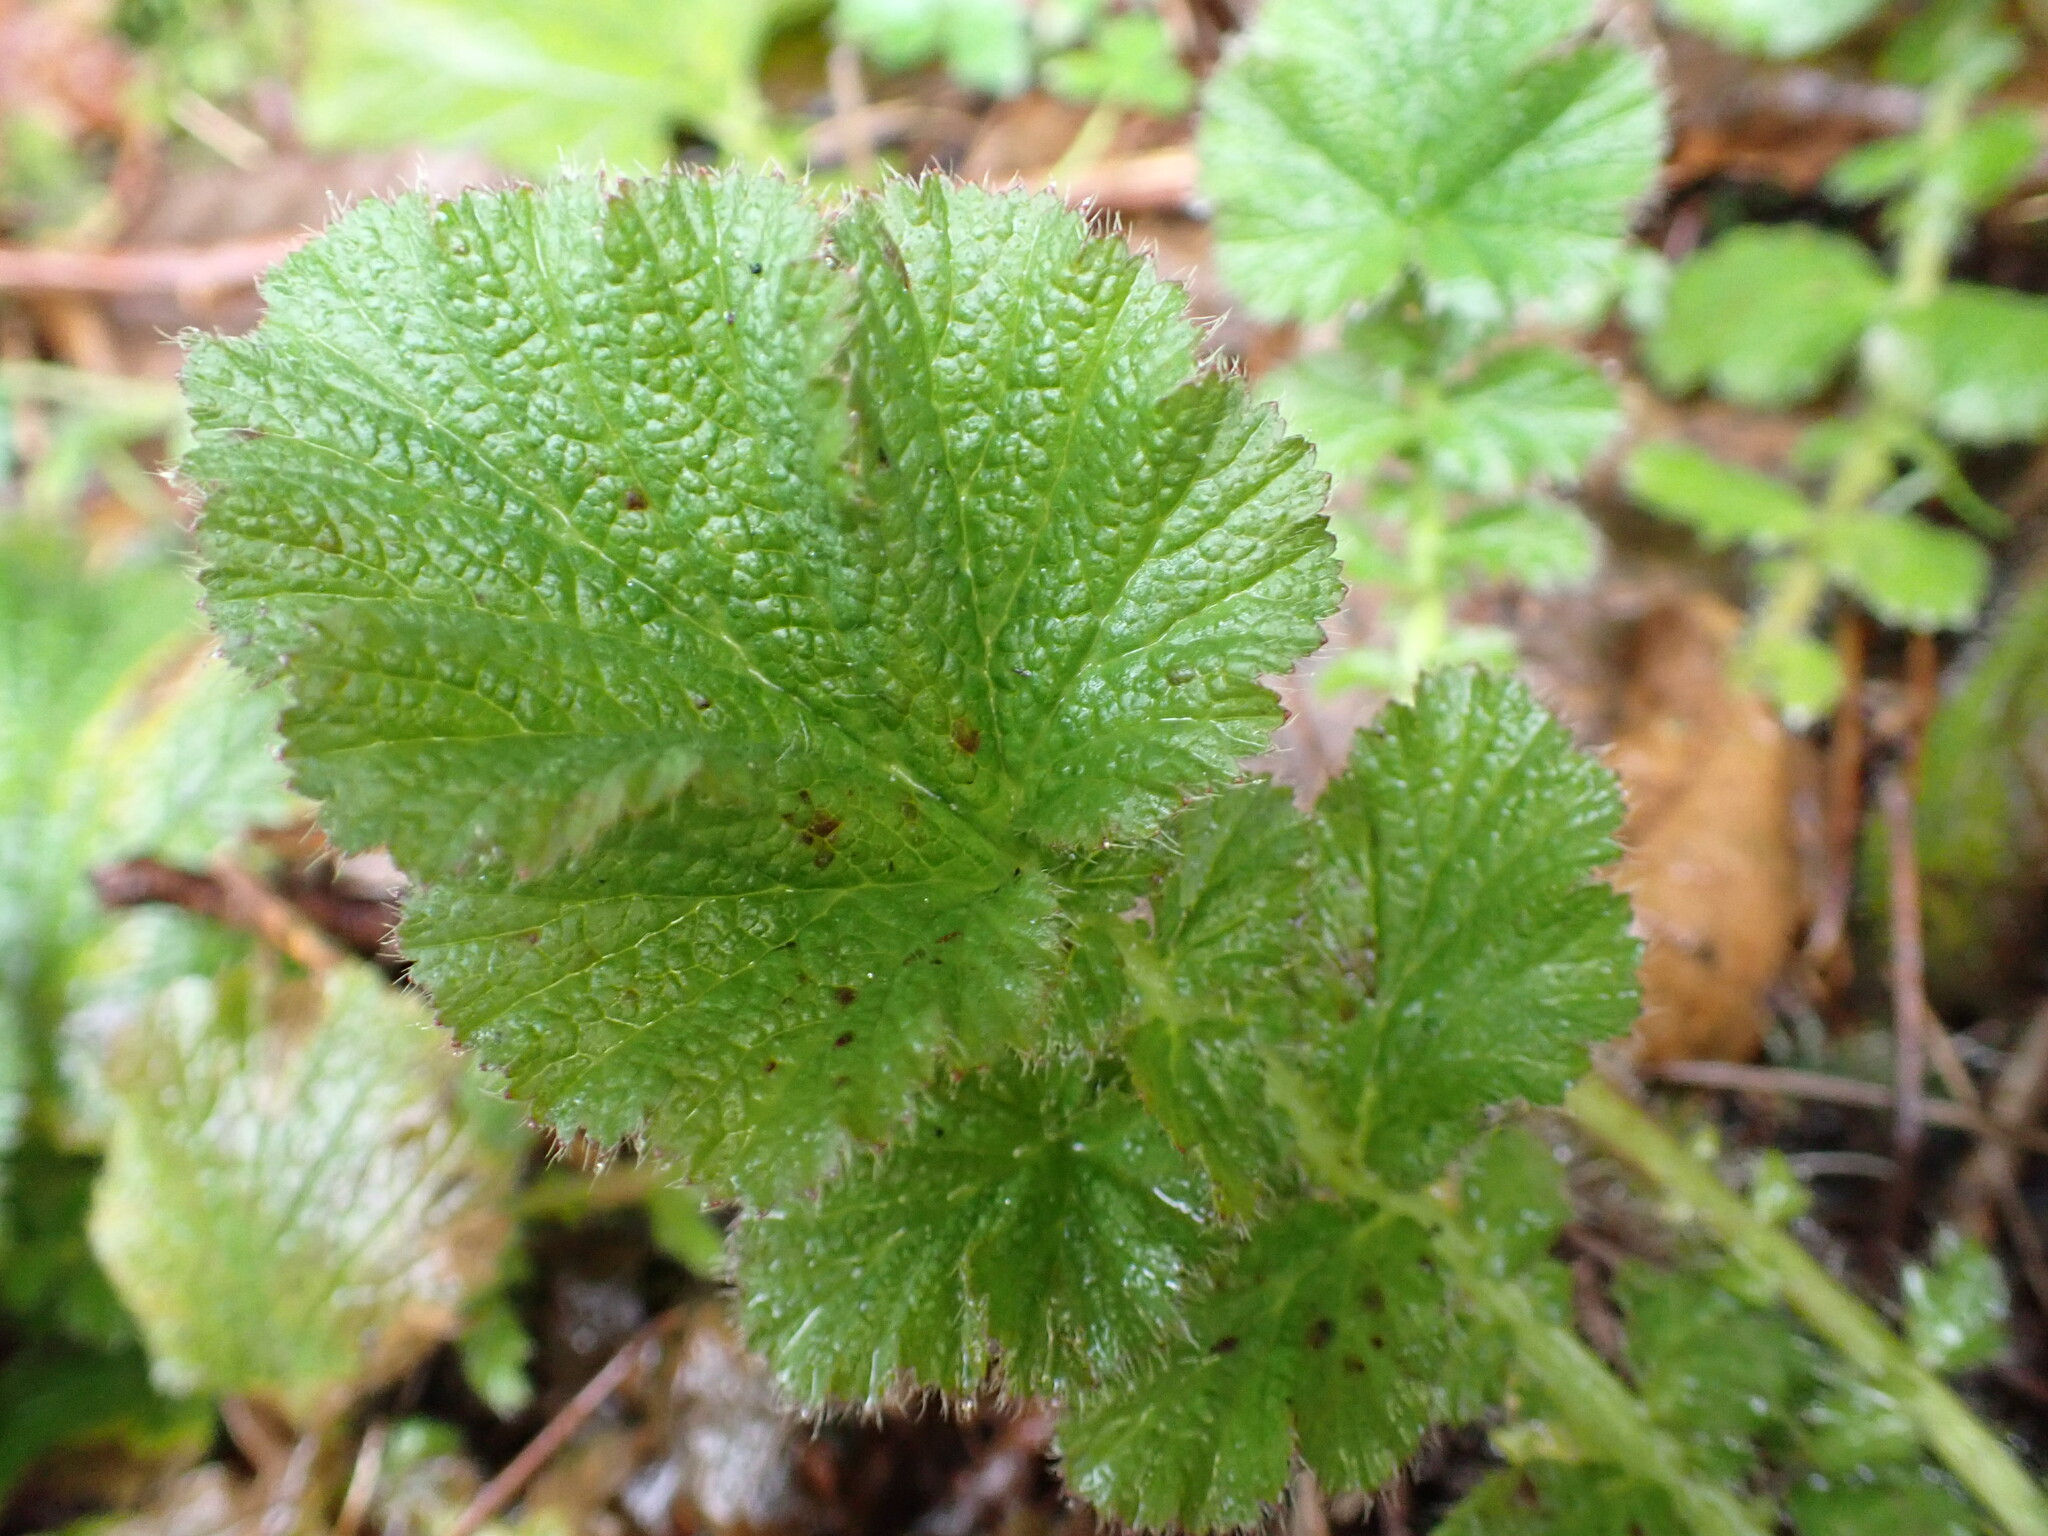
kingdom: Plantae
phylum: Tracheophyta
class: Magnoliopsida
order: Rosales
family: Rosaceae
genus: Geum
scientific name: Geum macrophyllum
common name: Large-leaved avens
